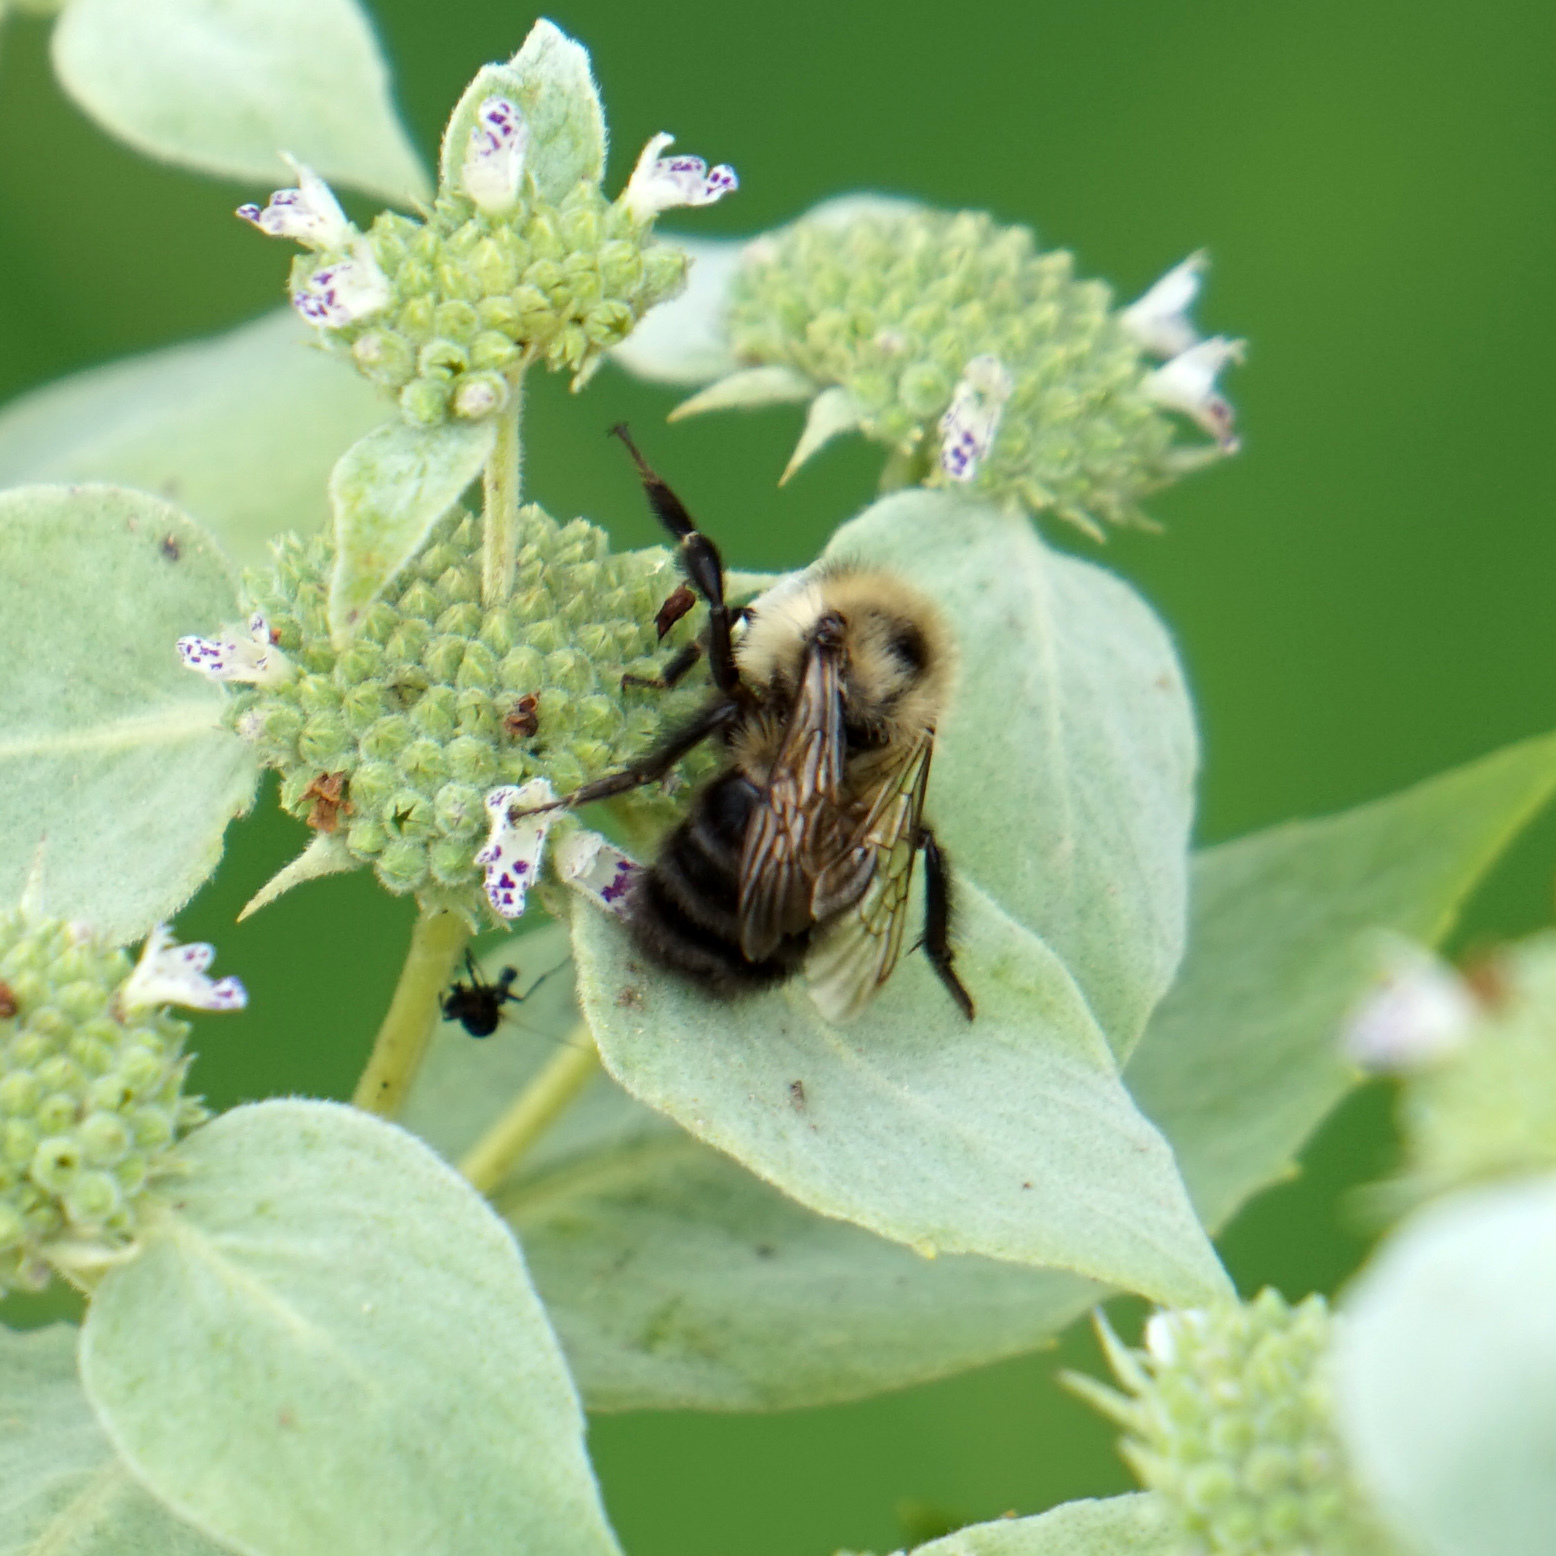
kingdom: Animalia
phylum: Arthropoda
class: Insecta
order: Hymenoptera
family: Apidae
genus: Bombus
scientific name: Bombus bimaculatus
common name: Two-spotted bumble bee
